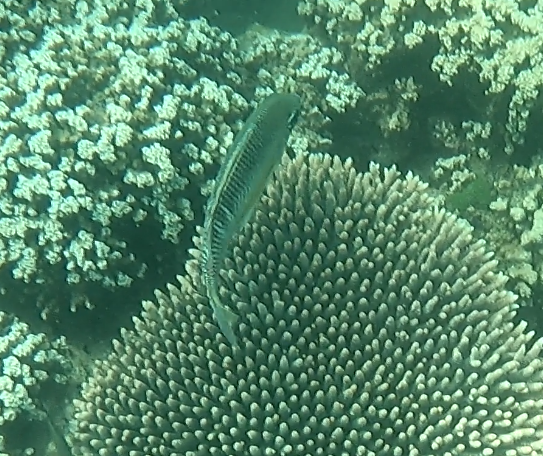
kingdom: Animalia
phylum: Chordata
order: Perciformes
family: Nemipteridae
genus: Scolopsis
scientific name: Scolopsis margaritifera
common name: Pearly monocle bream
